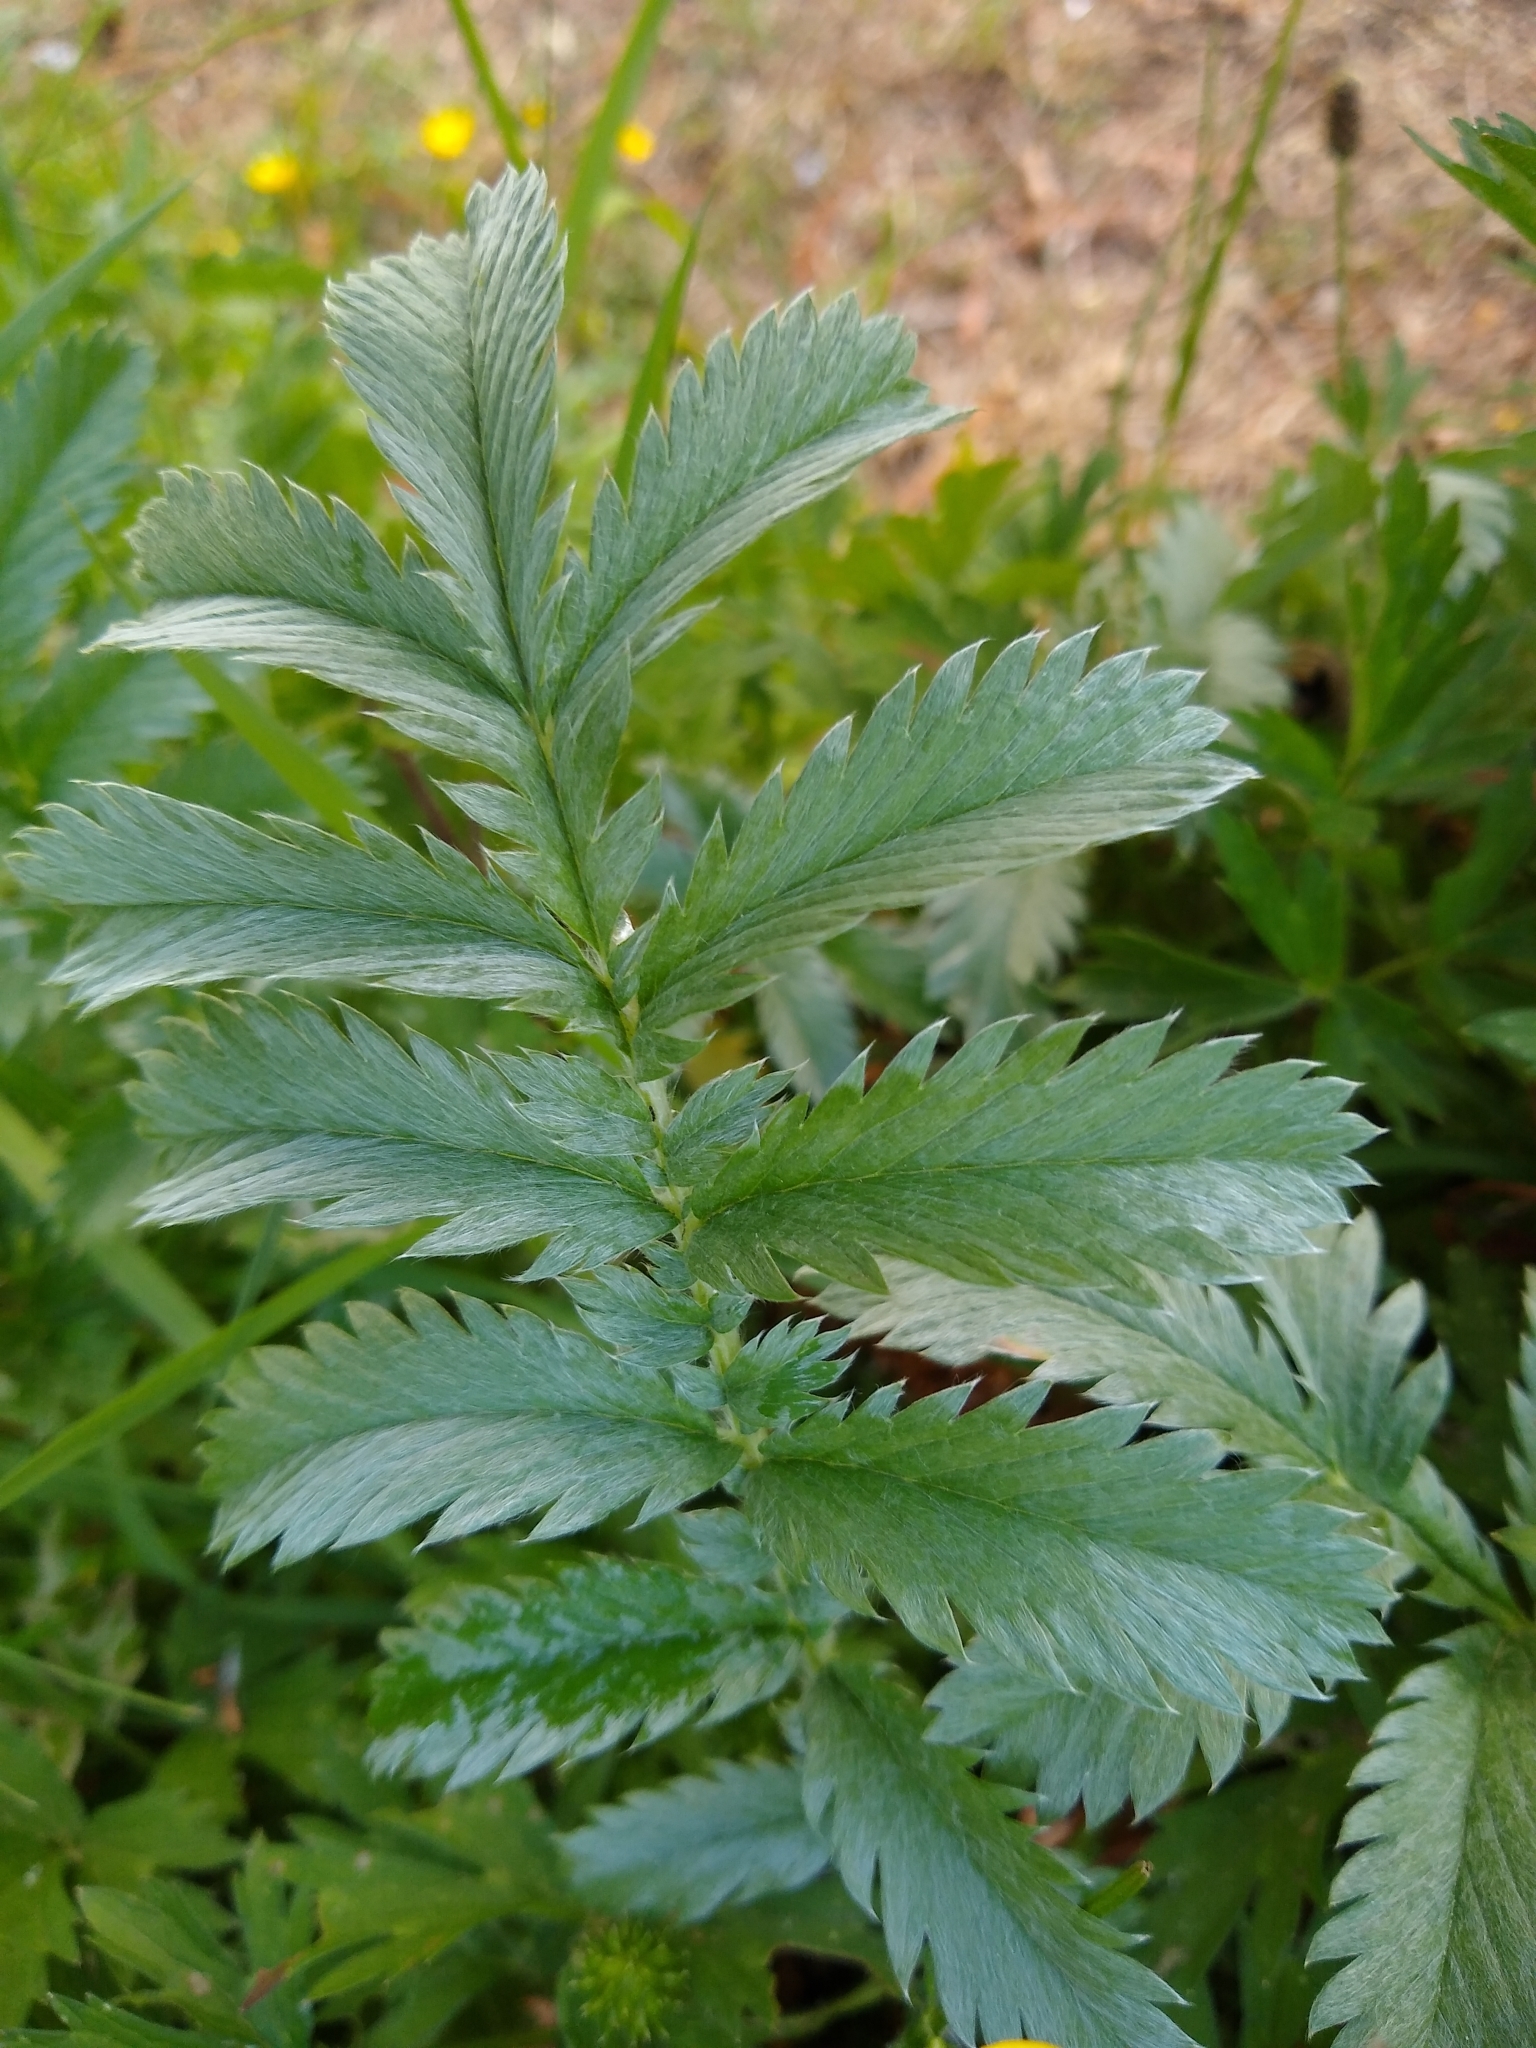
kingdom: Plantae
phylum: Tracheophyta
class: Magnoliopsida
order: Rosales
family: Rosaceae
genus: Argentina
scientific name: Argentina anserina
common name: Common silverweed
